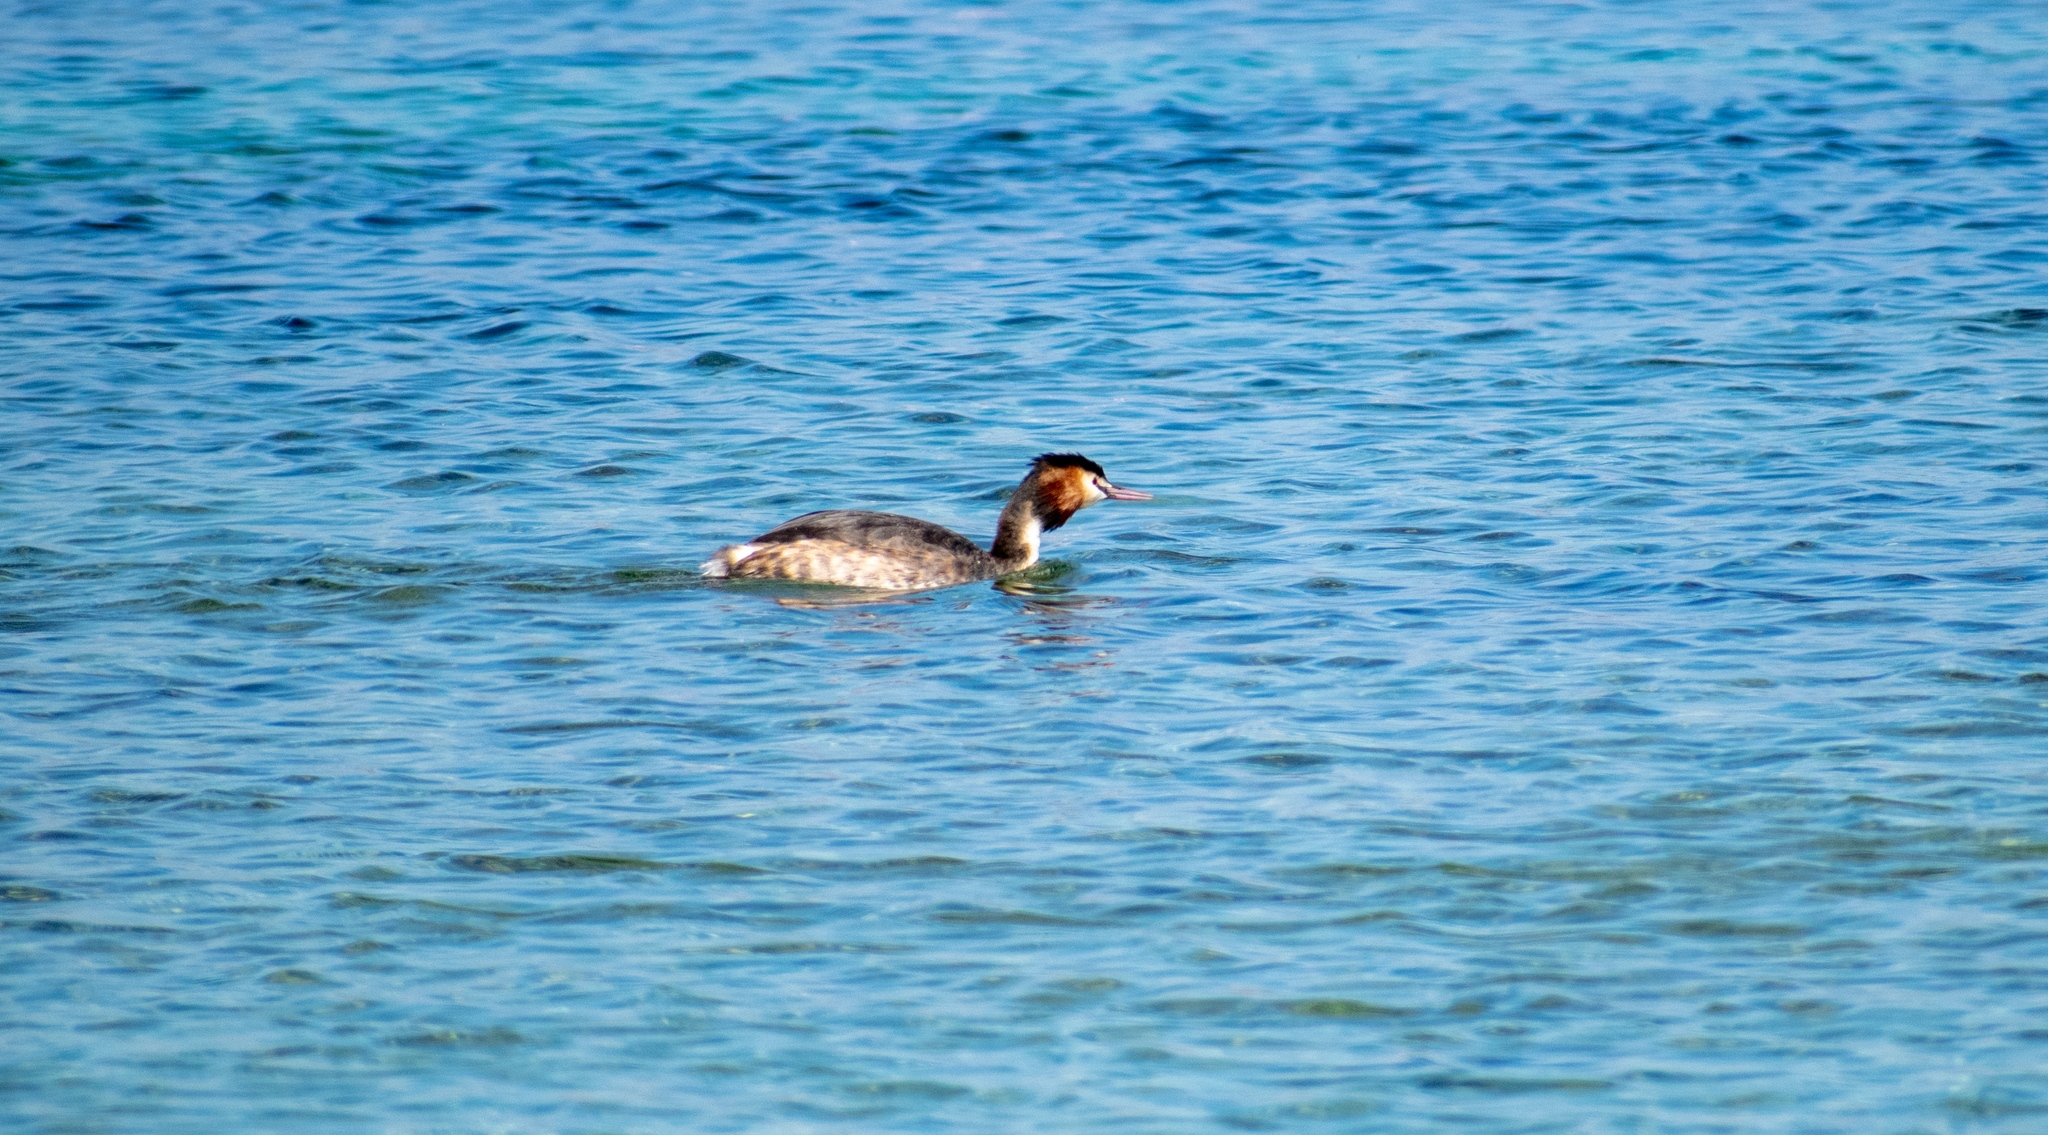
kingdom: Animalia
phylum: Chordata
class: Aves
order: Podicipediformes
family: Podicipedidae
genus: Podiceps
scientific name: Podiceps cristatus
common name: Great crested grebe
